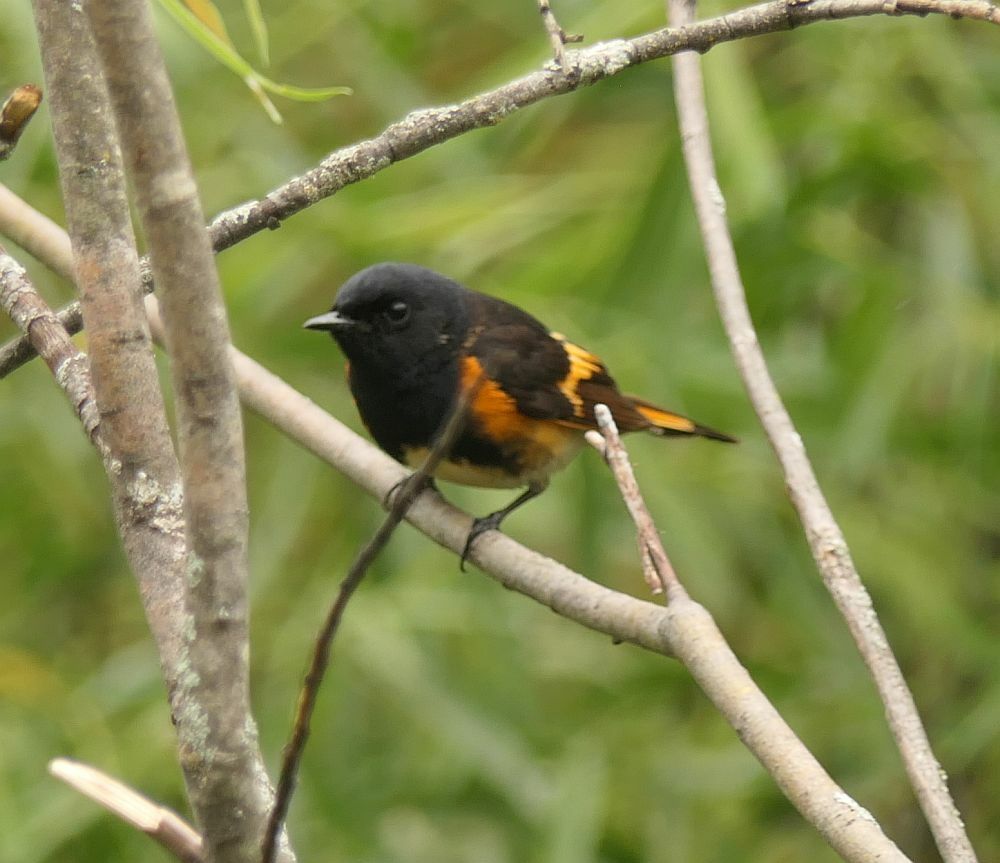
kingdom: Animalia
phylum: Chordata
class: Aves
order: Passeriformes
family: Parulidae
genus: Setophaga
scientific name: Setophaga ruticilla
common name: American redstart
